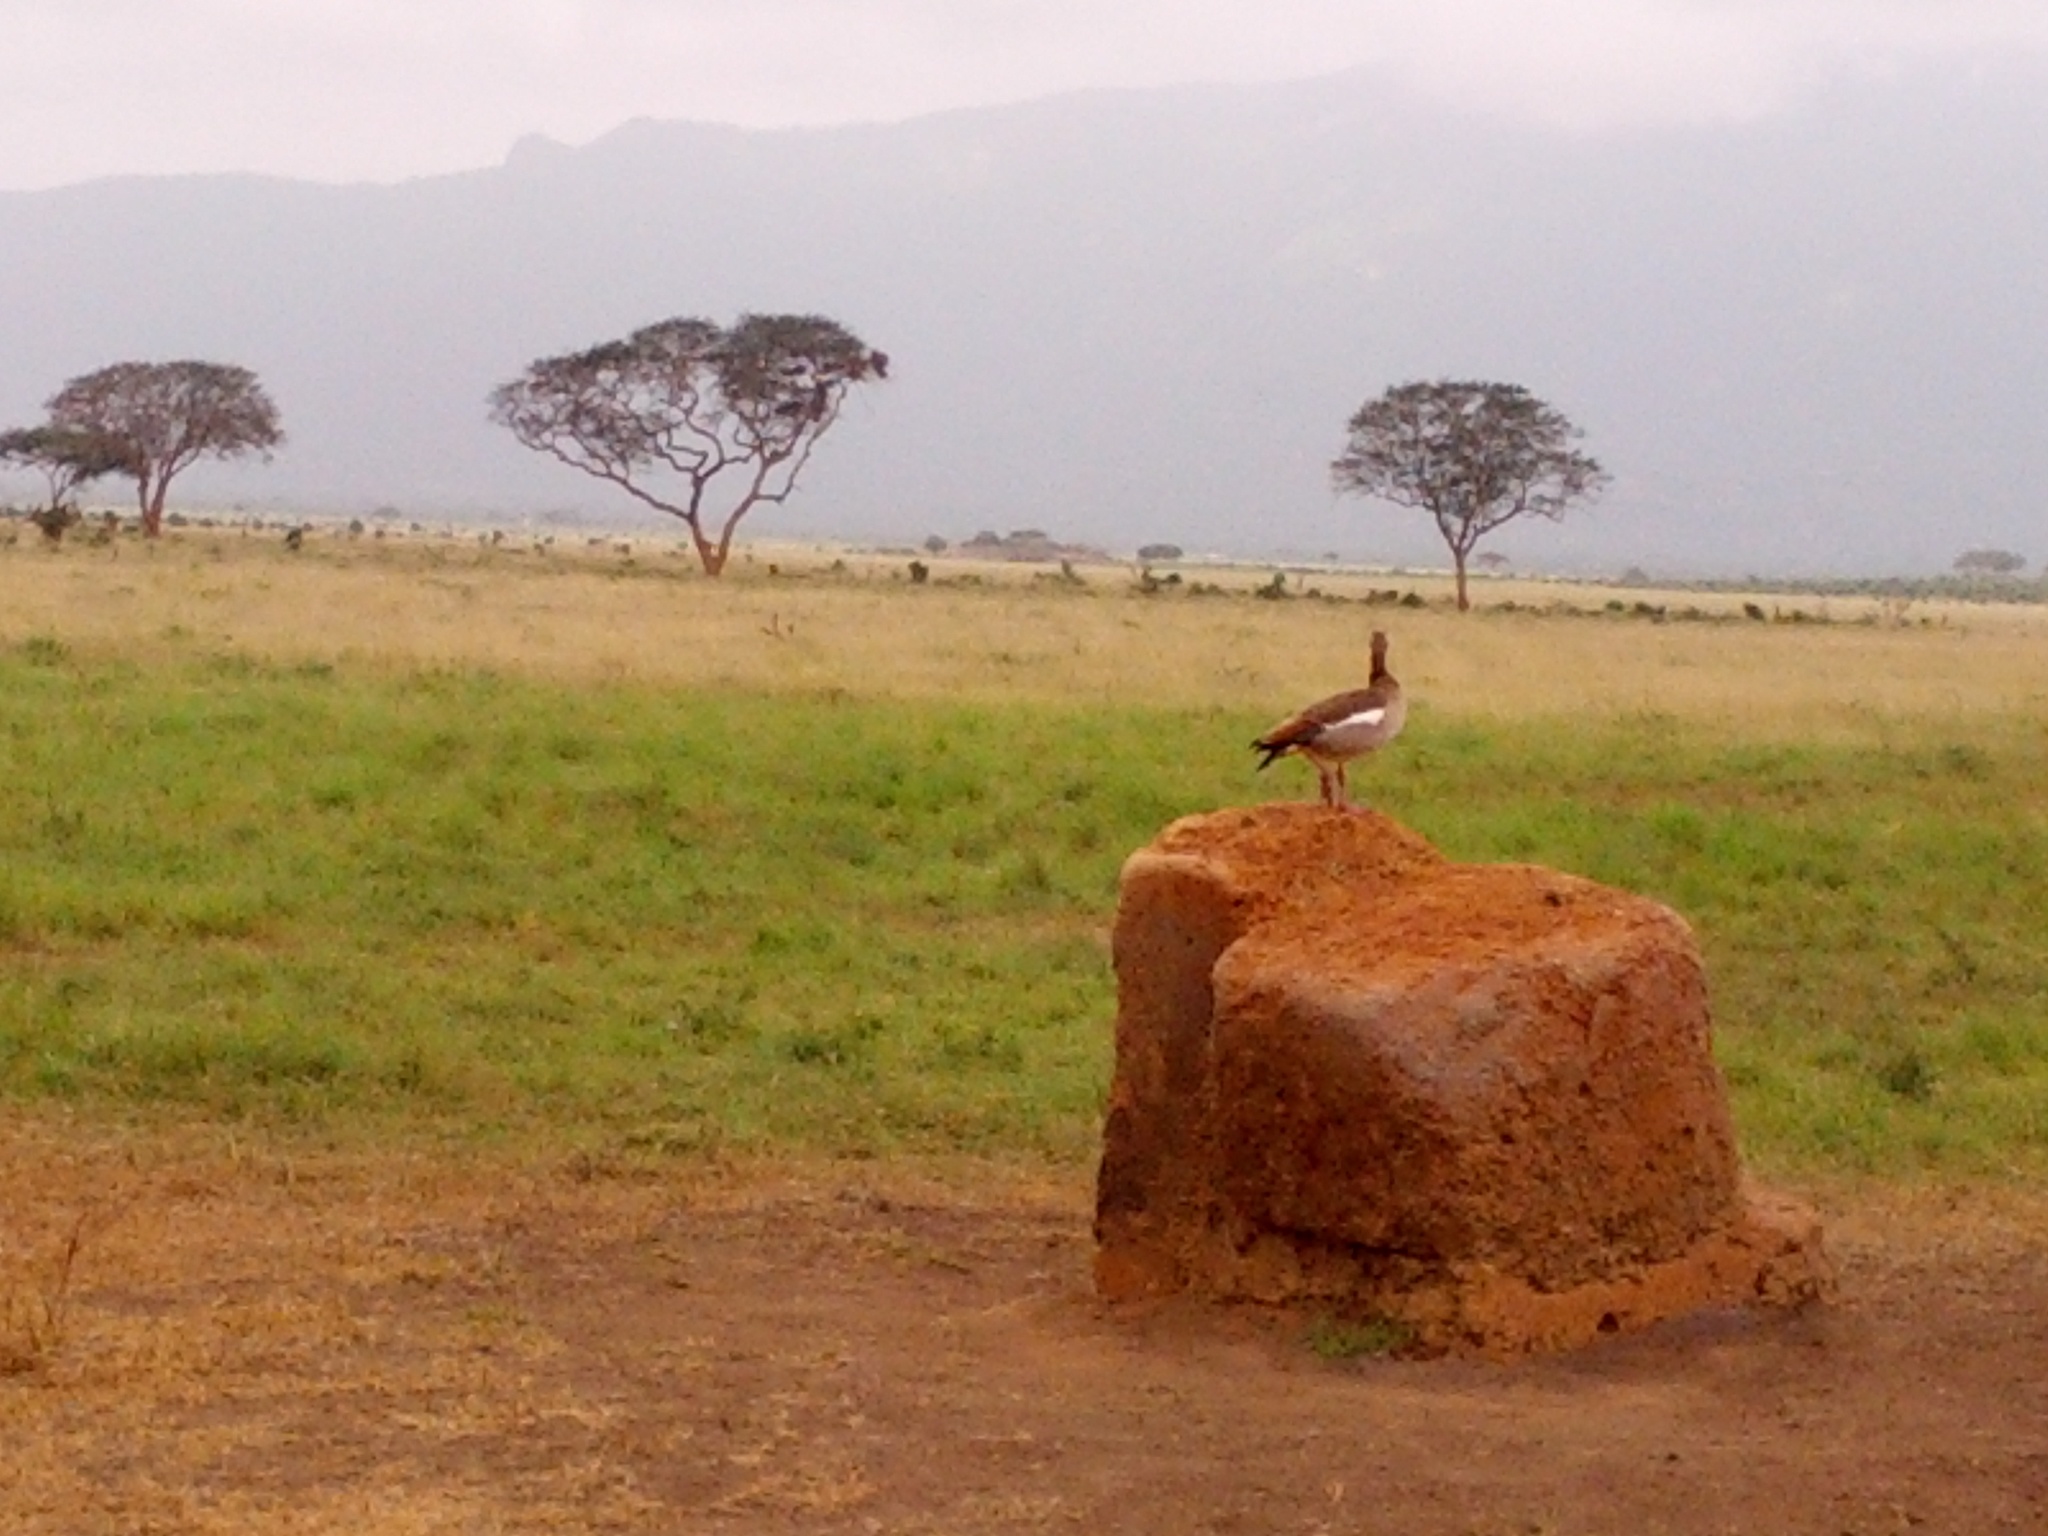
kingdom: Animalia
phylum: Chordata
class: Aves
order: Anseriformes
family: Anatidae
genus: Alopochen
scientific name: Alopochen aegyptiaca
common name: Egyptian goose
